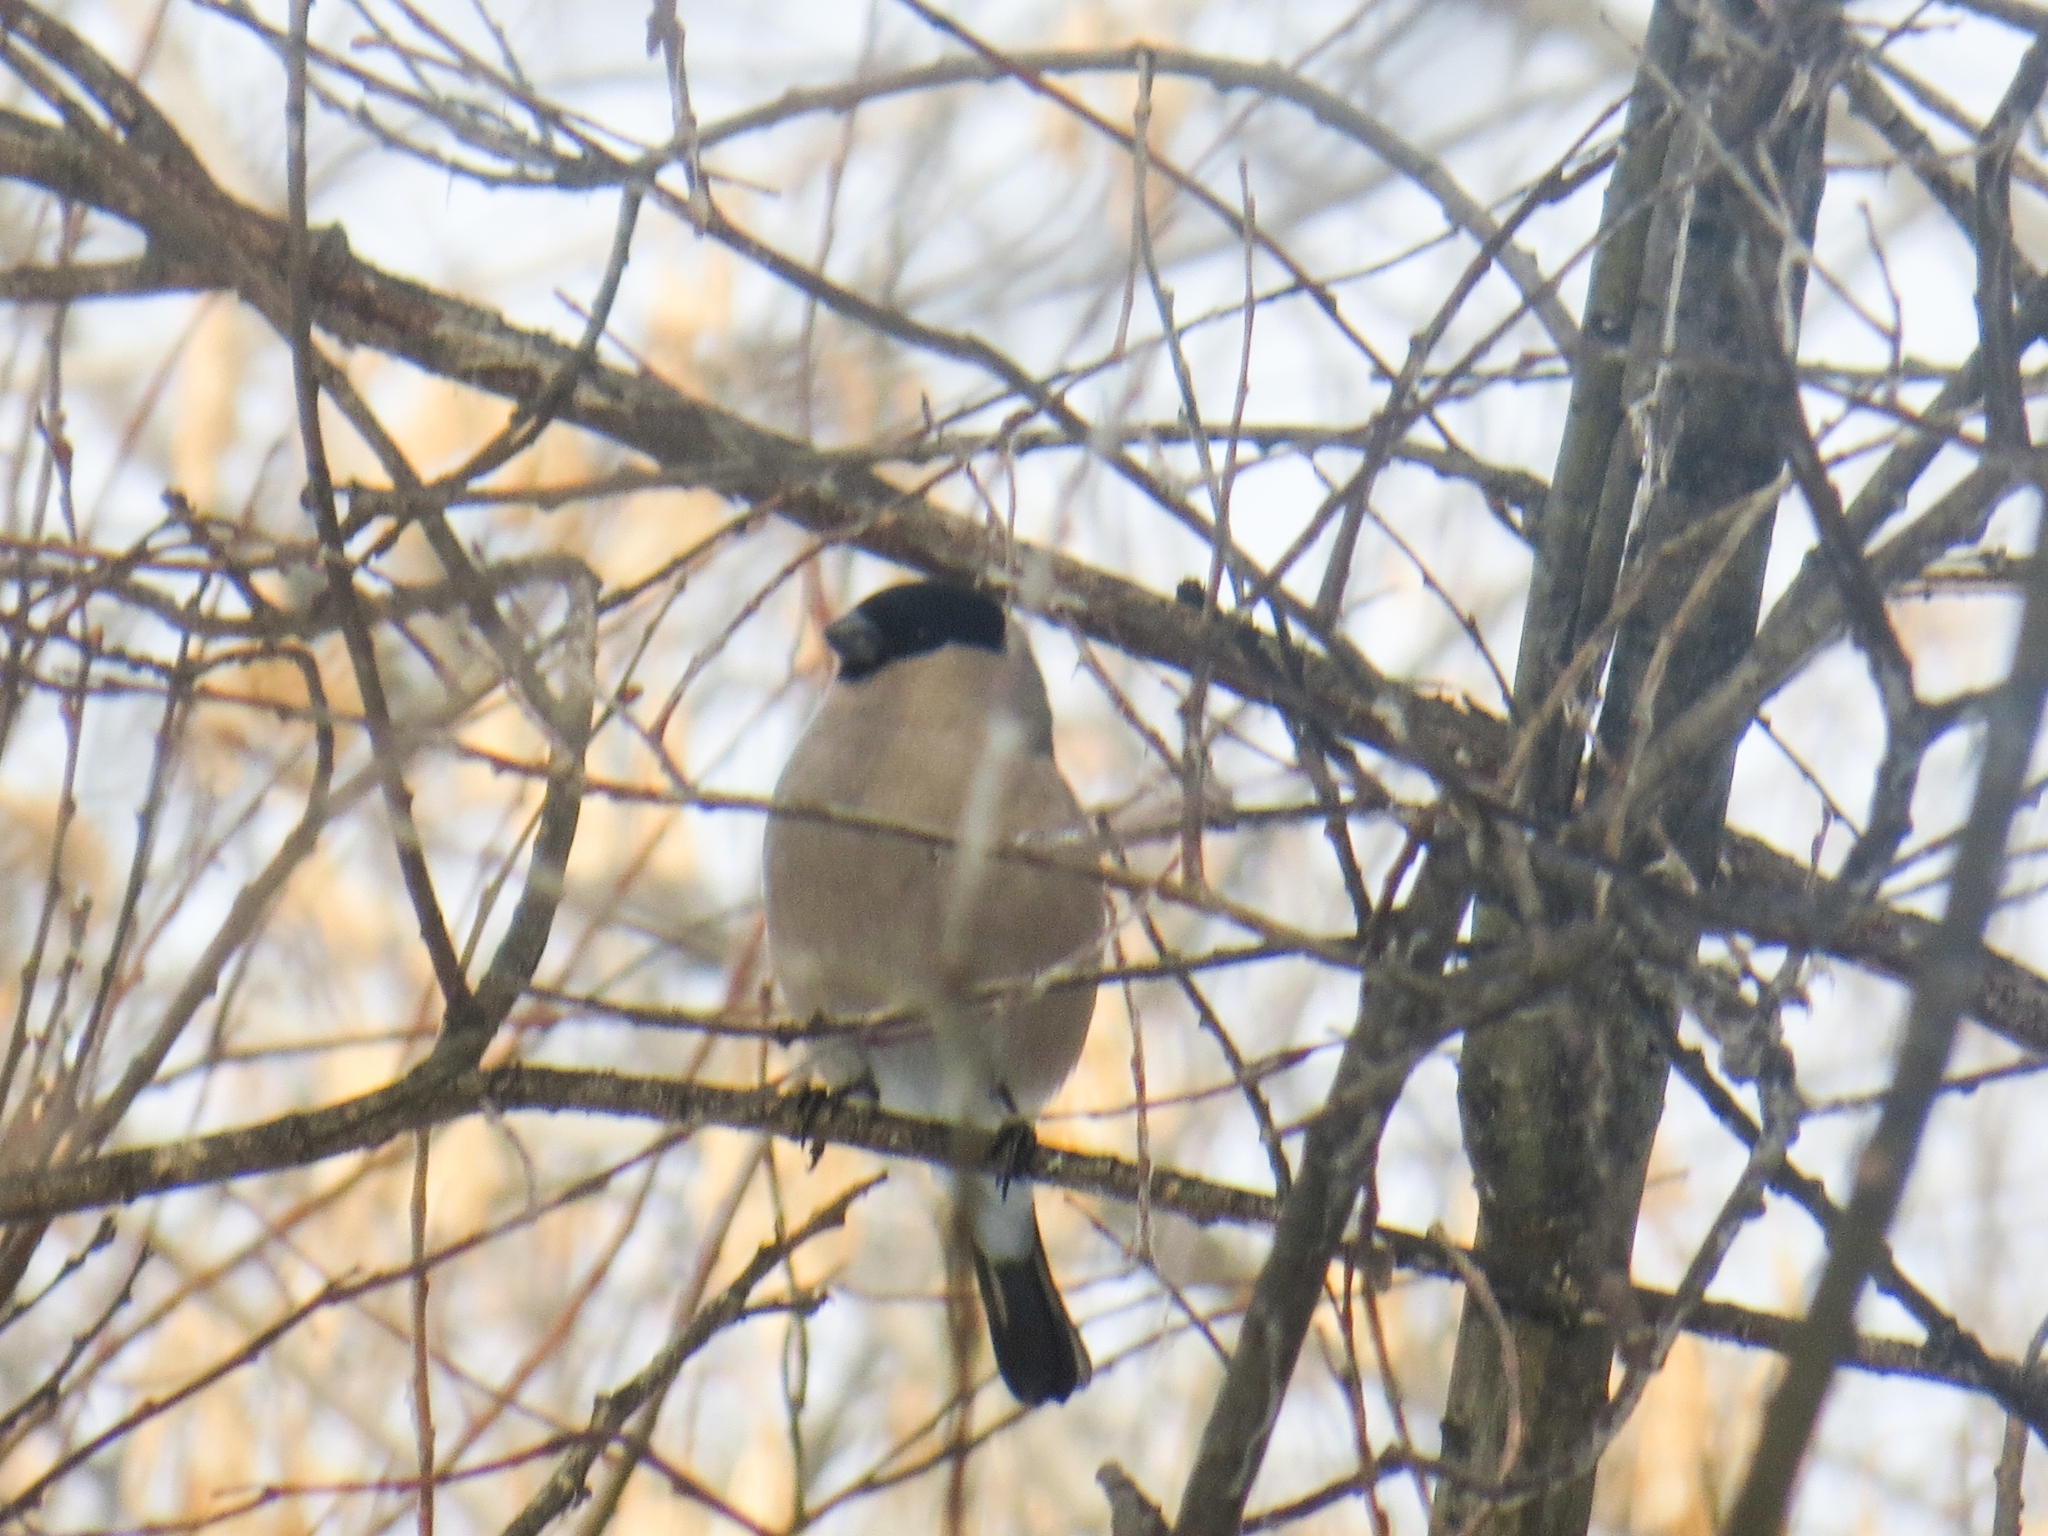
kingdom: Animalia
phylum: Chordata
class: Aves
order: Passeriformes
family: Fringillidae
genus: Pyrrhula
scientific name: Pyrrhula pyrrhula
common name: Eurasian bullfinch
